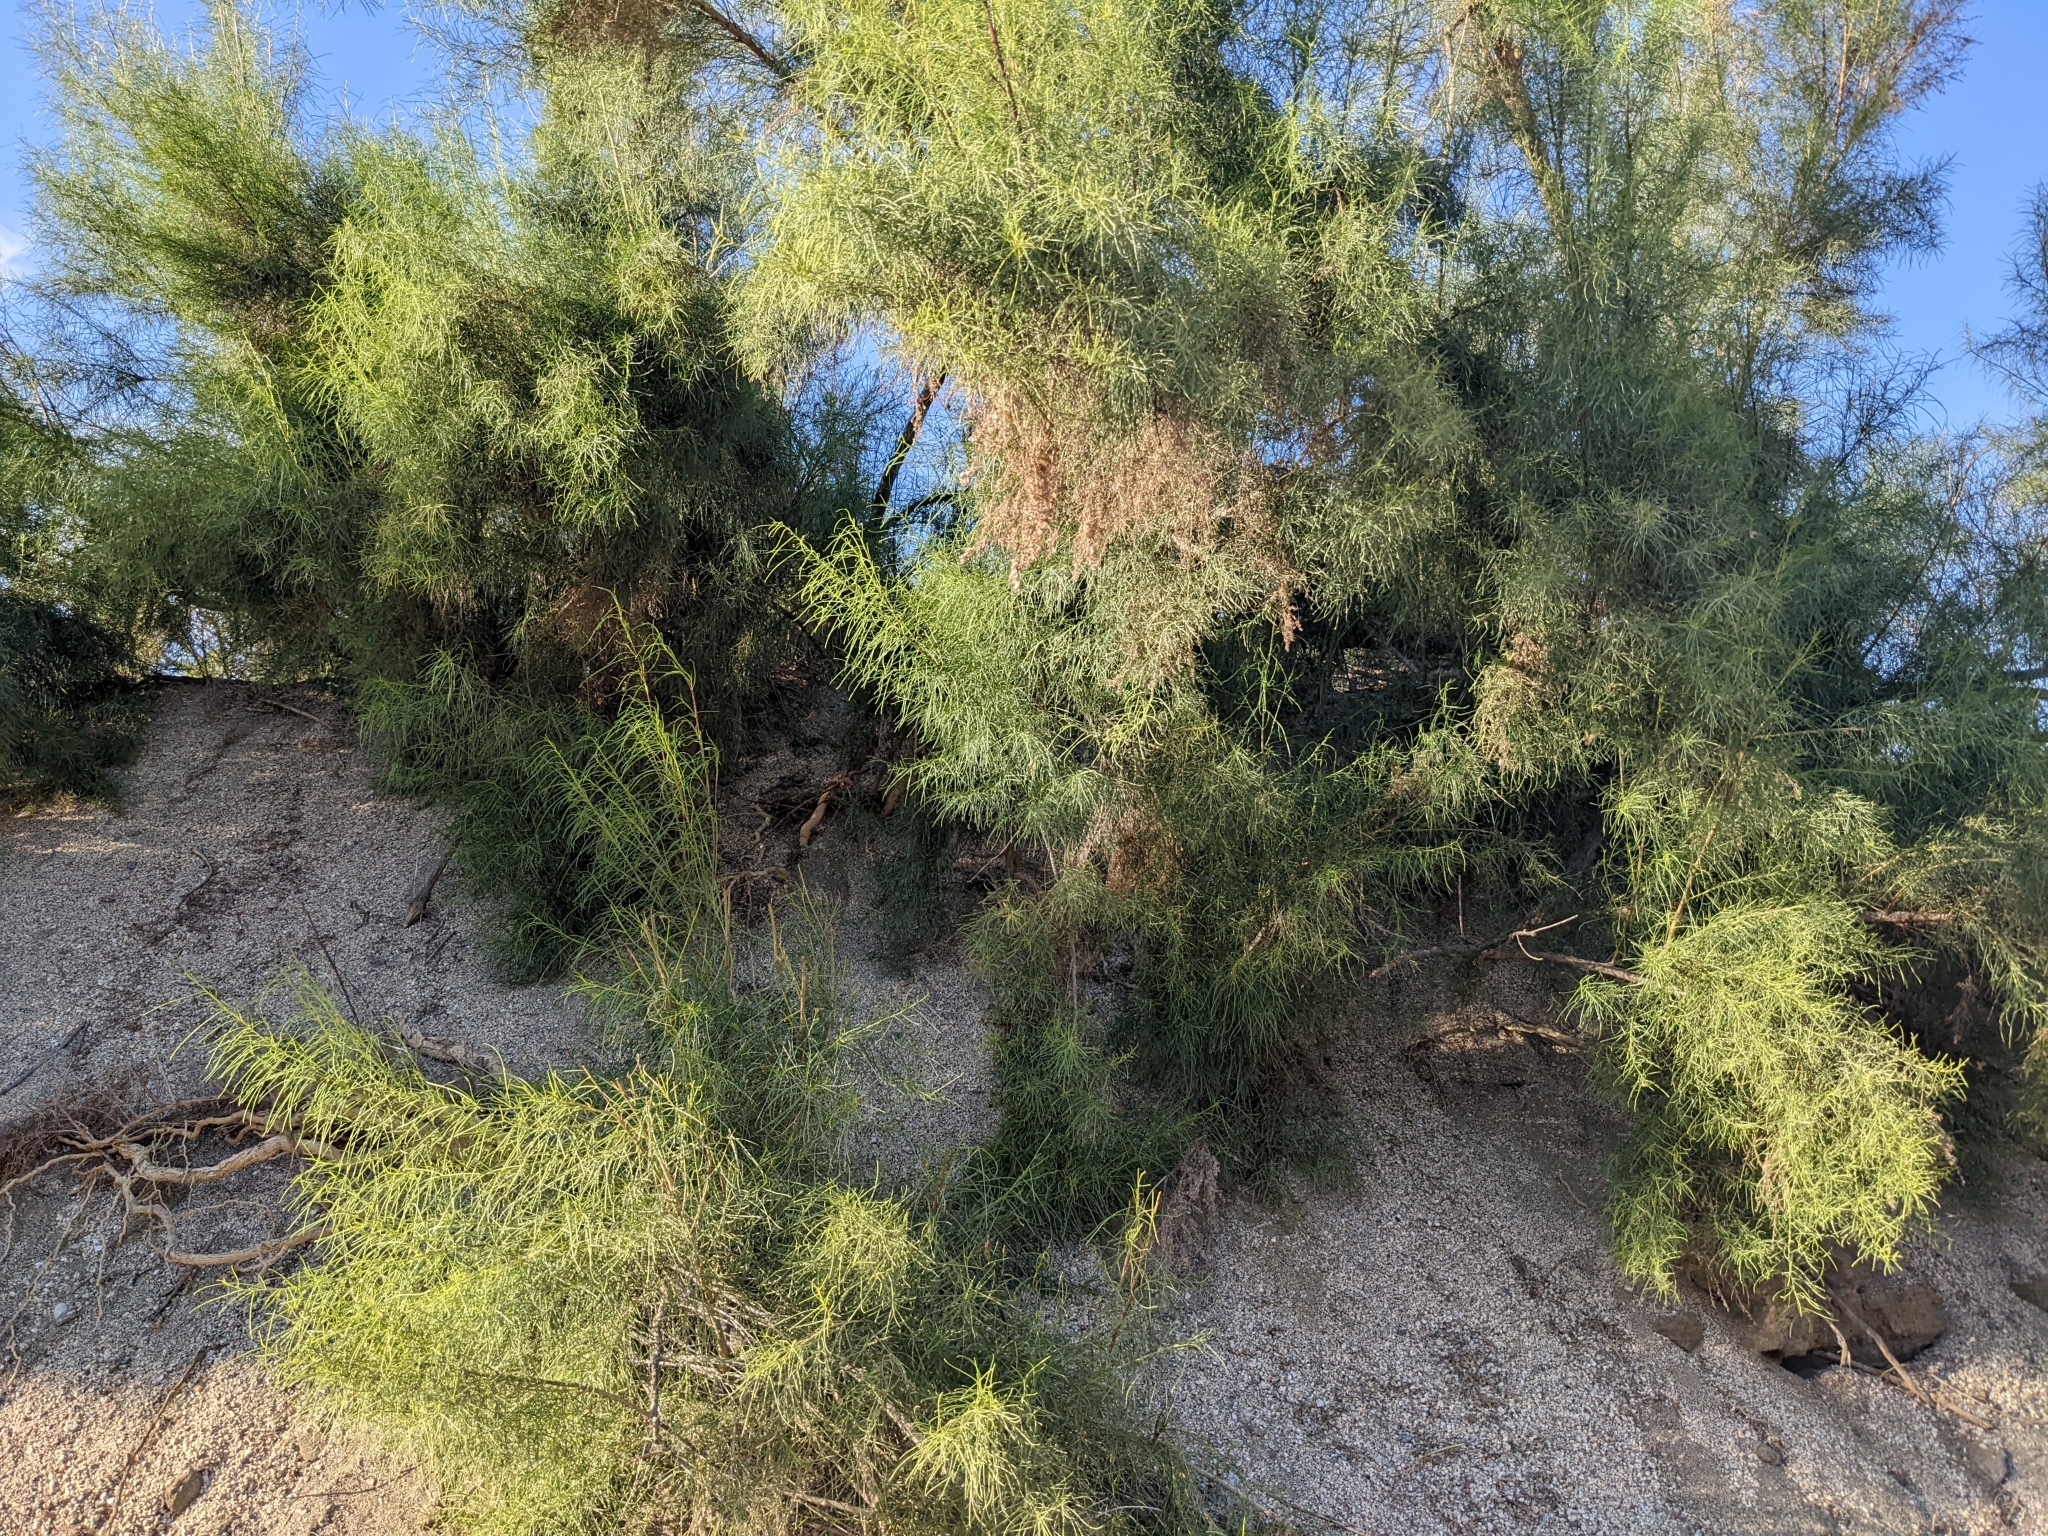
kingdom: Plantae
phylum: Tracheophyta
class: Magnoliopsida
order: Asterales
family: Asteraceae
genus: Ambrosia
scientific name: Ambrosia monogyra
